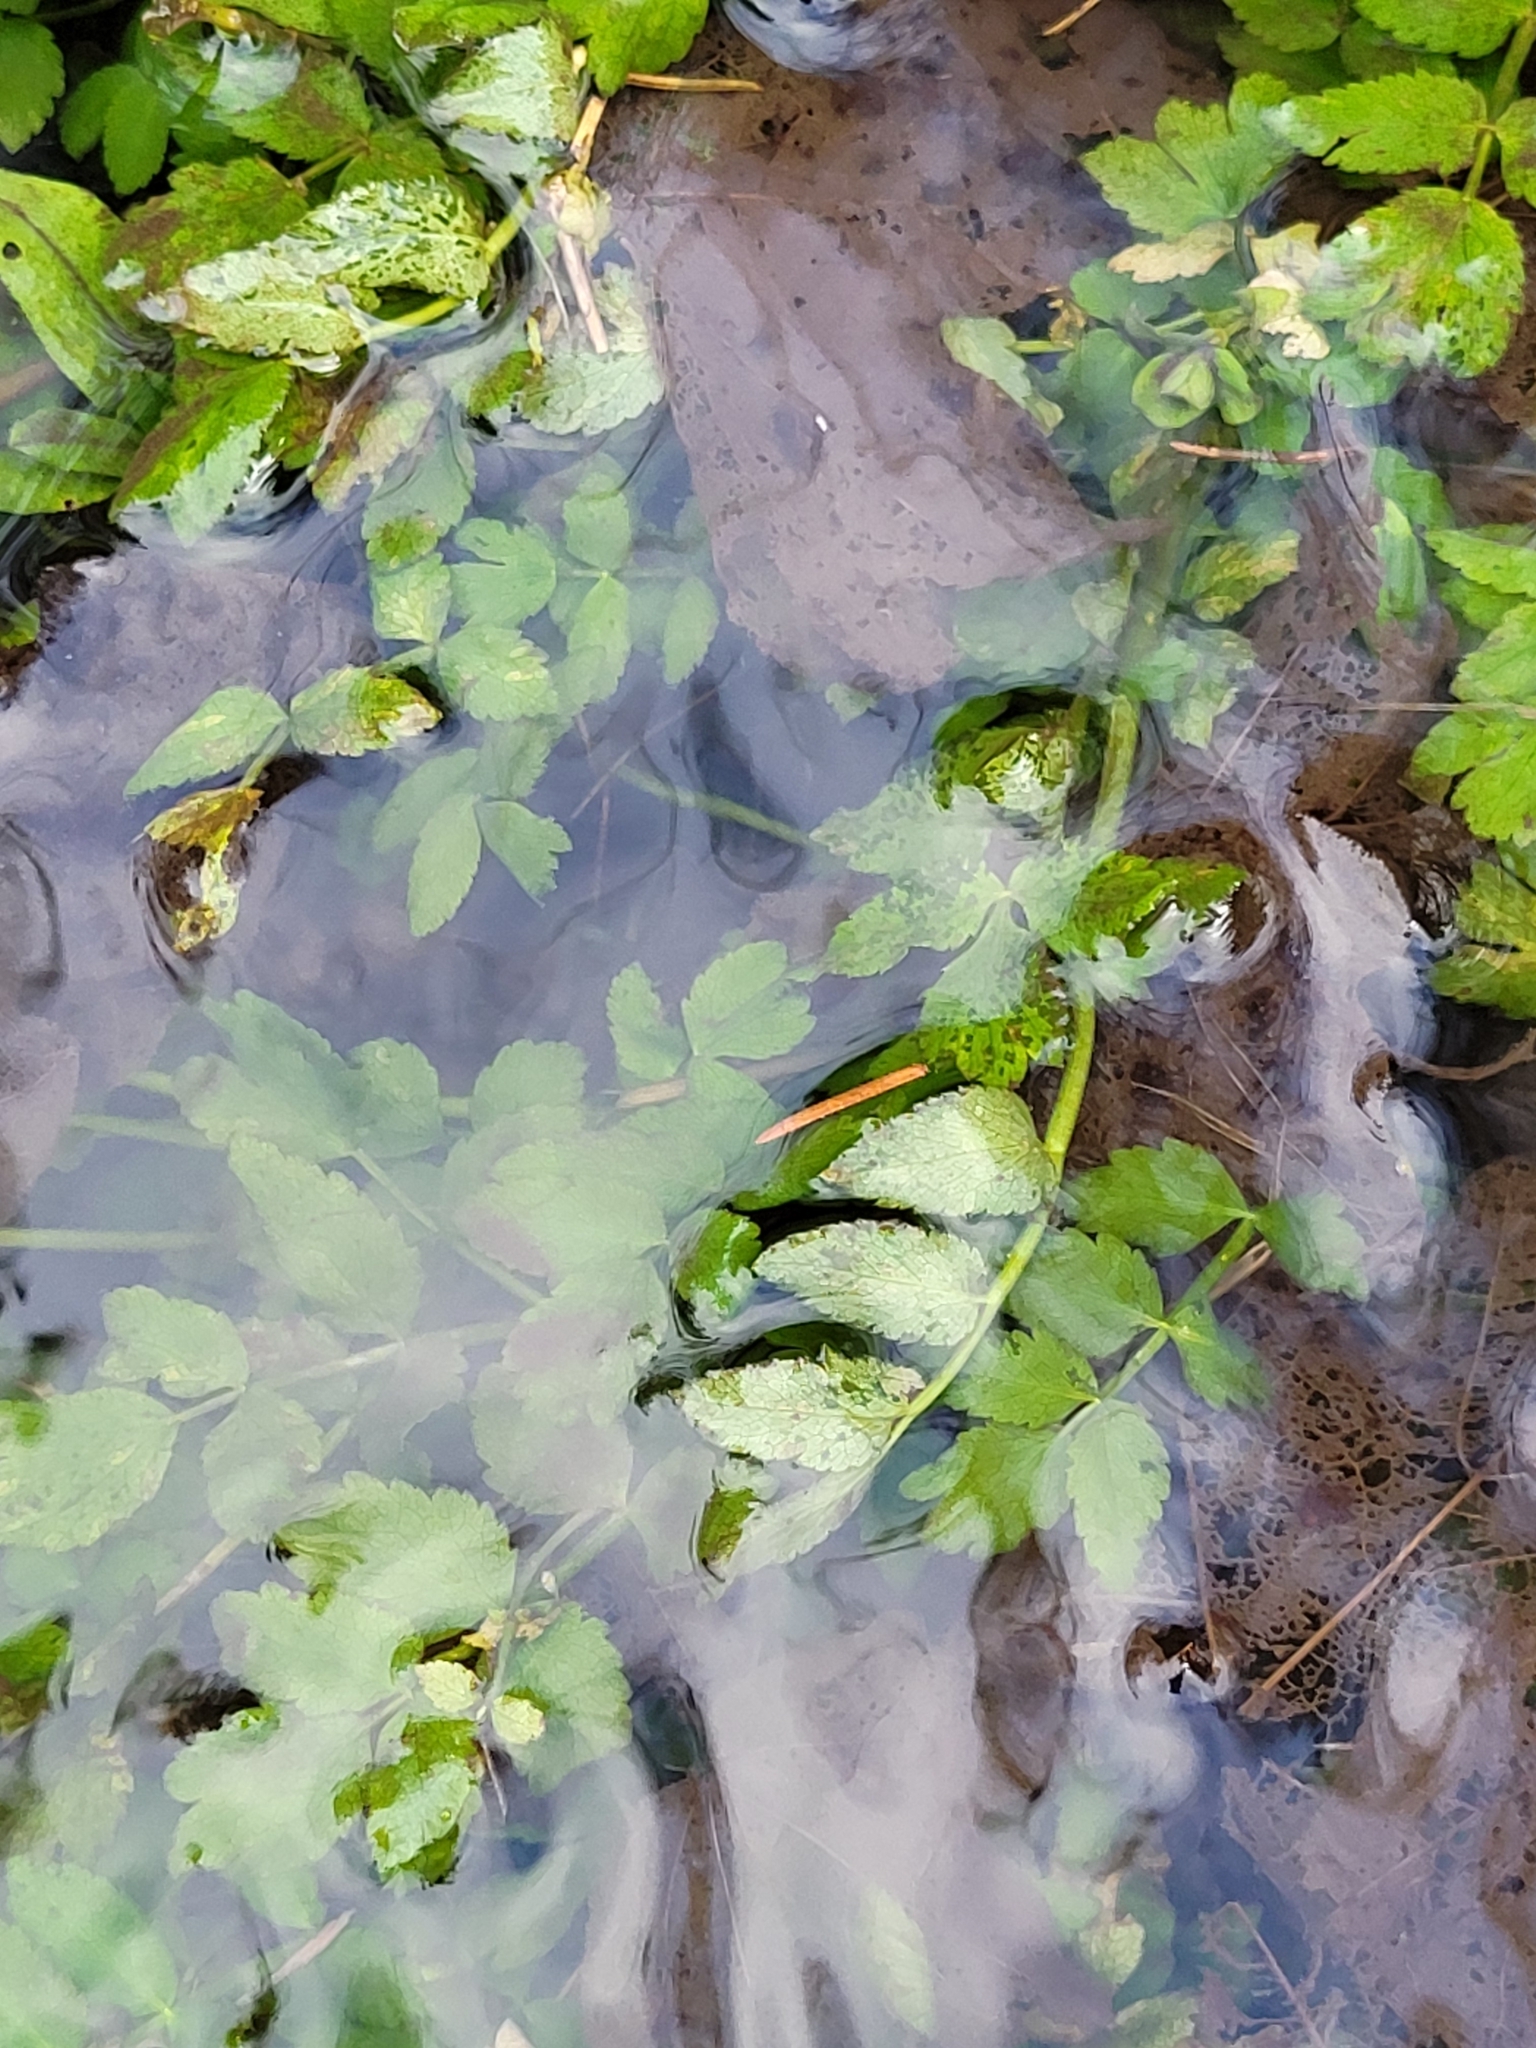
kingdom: Plantae
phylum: Tracheophyta
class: Magnoliopsida
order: Apiales
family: Apiaceae
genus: Berula
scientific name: Berula erecta
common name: Lesser water-parsnip
